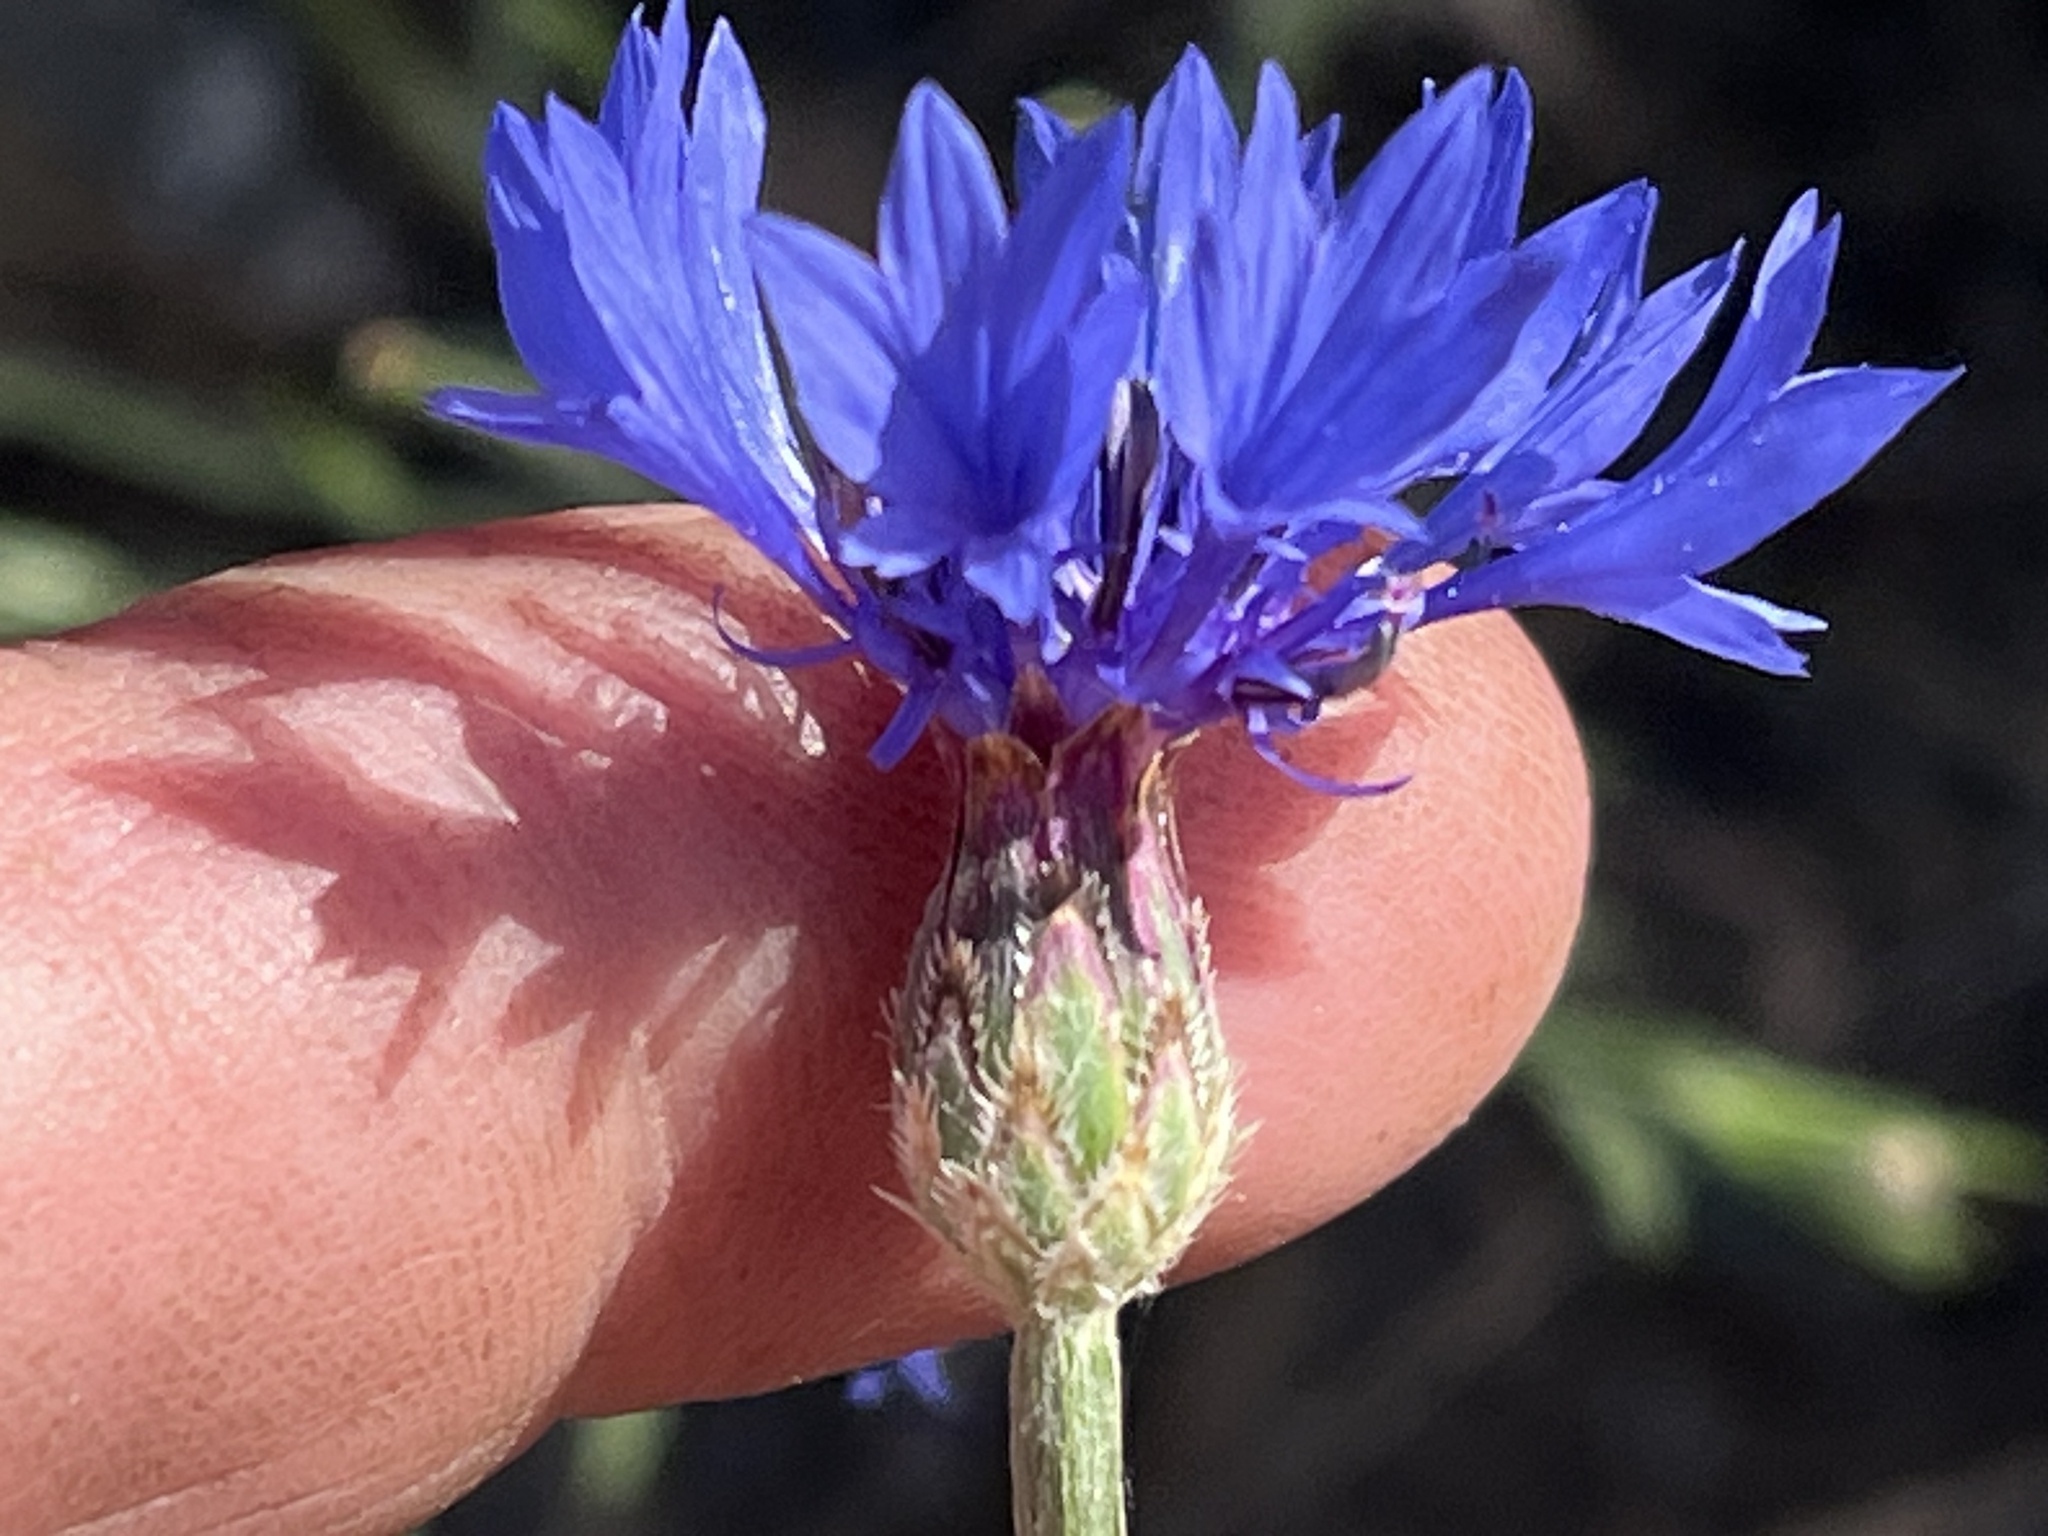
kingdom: Plantae
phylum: Tracheophyta
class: Magnoliopsida
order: Asterales
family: Asteraceae
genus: Centaurea
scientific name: Centaurea cyanus
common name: Cornflower
